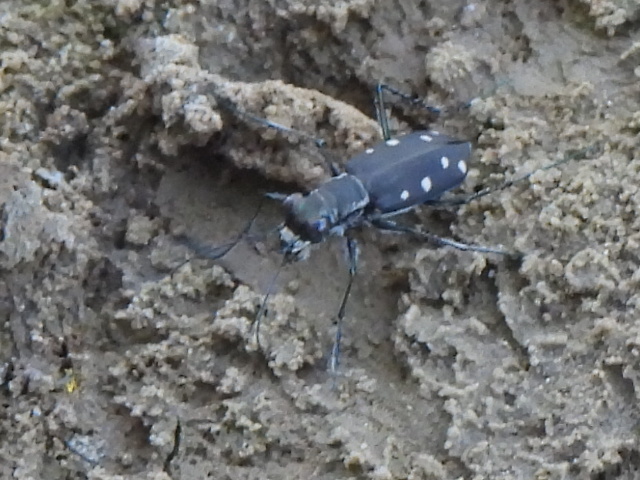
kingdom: Animalia
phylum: Arthropoda
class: Insecta
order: Coleoptera
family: Carabidae
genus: Cicindela
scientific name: Cicindela ocellata
